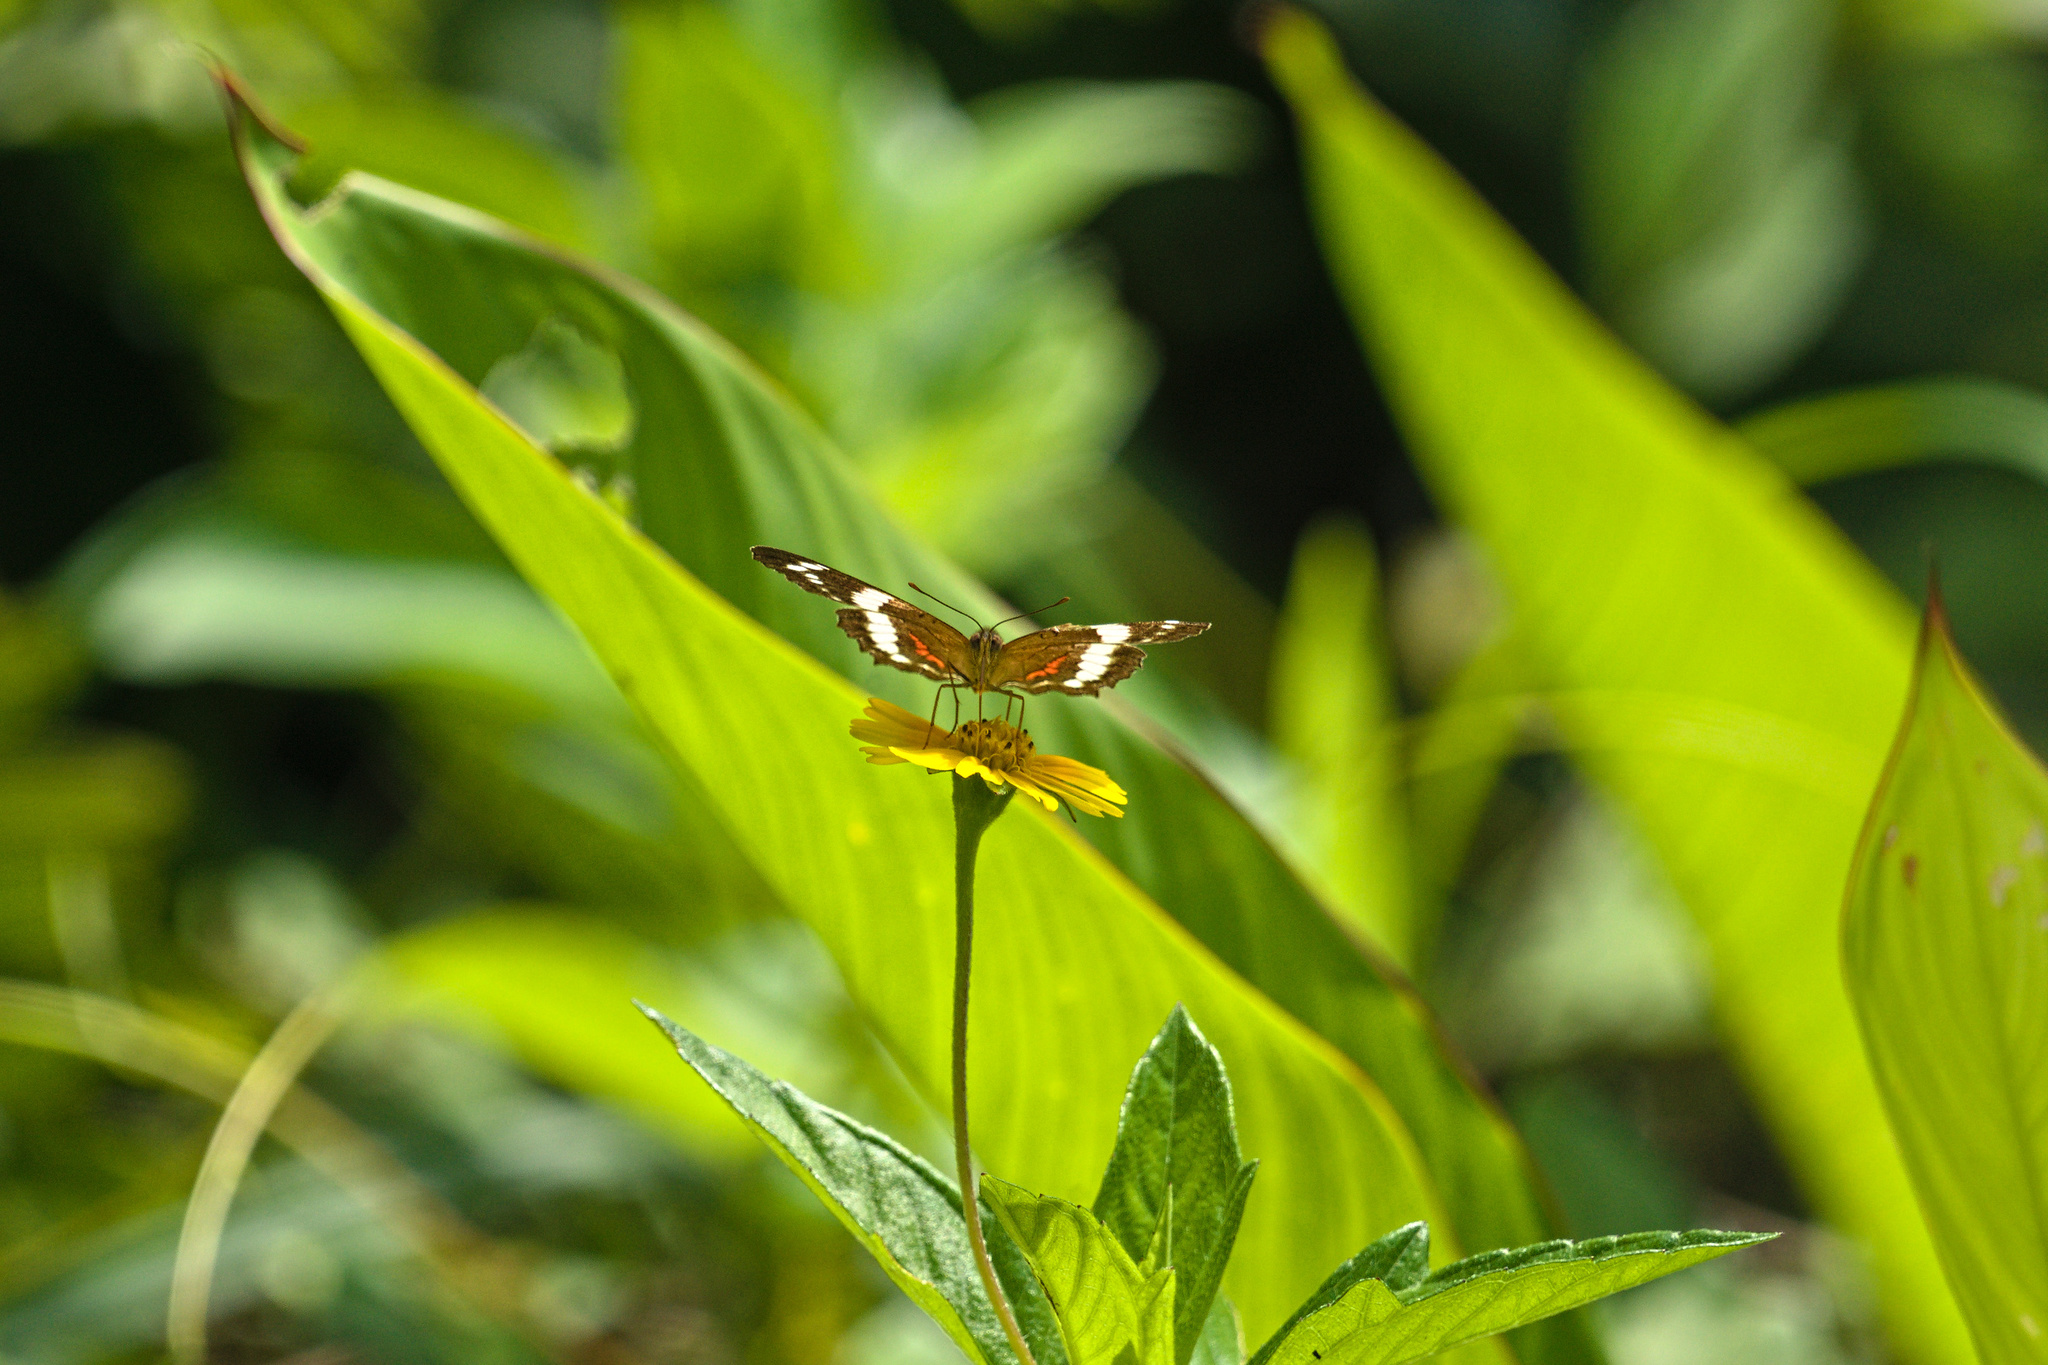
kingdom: Animalia
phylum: Arthropoda
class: Insecta
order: Lepidoptera
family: Nymphalidae
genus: Anartia
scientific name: Anartia fatima
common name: Banded peacock
